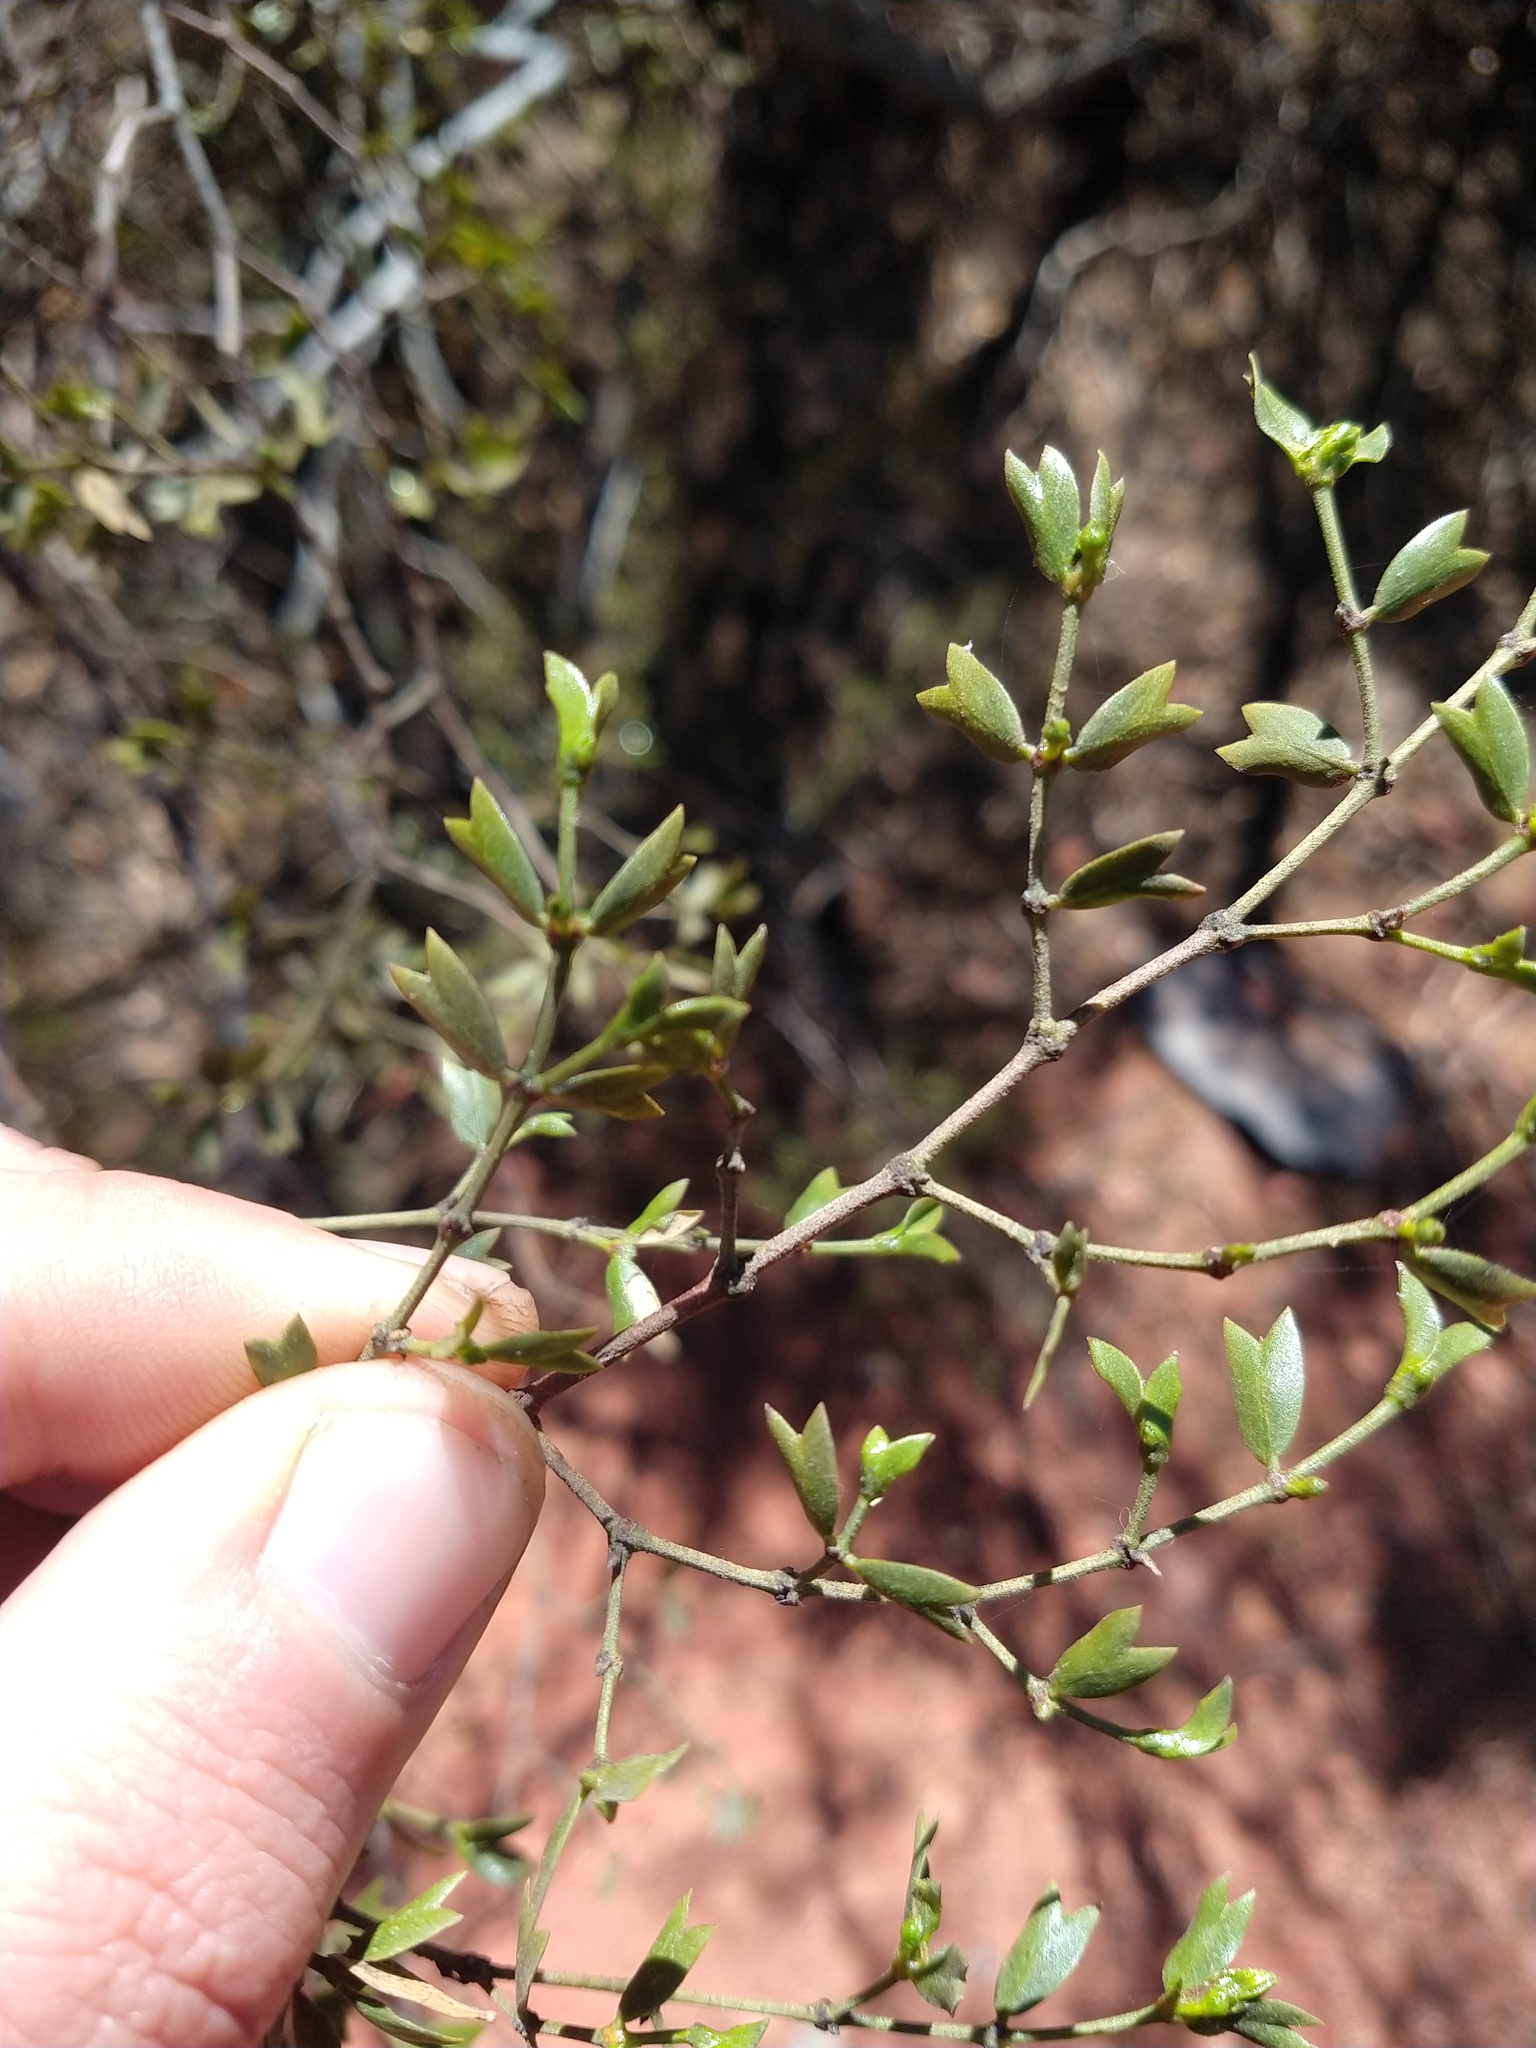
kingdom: Plantae
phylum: Tracheophyta
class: Magnoliopsida
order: Zygophyllales
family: Zygophyllaceae
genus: Larrea
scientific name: Larrea cuneifolia
